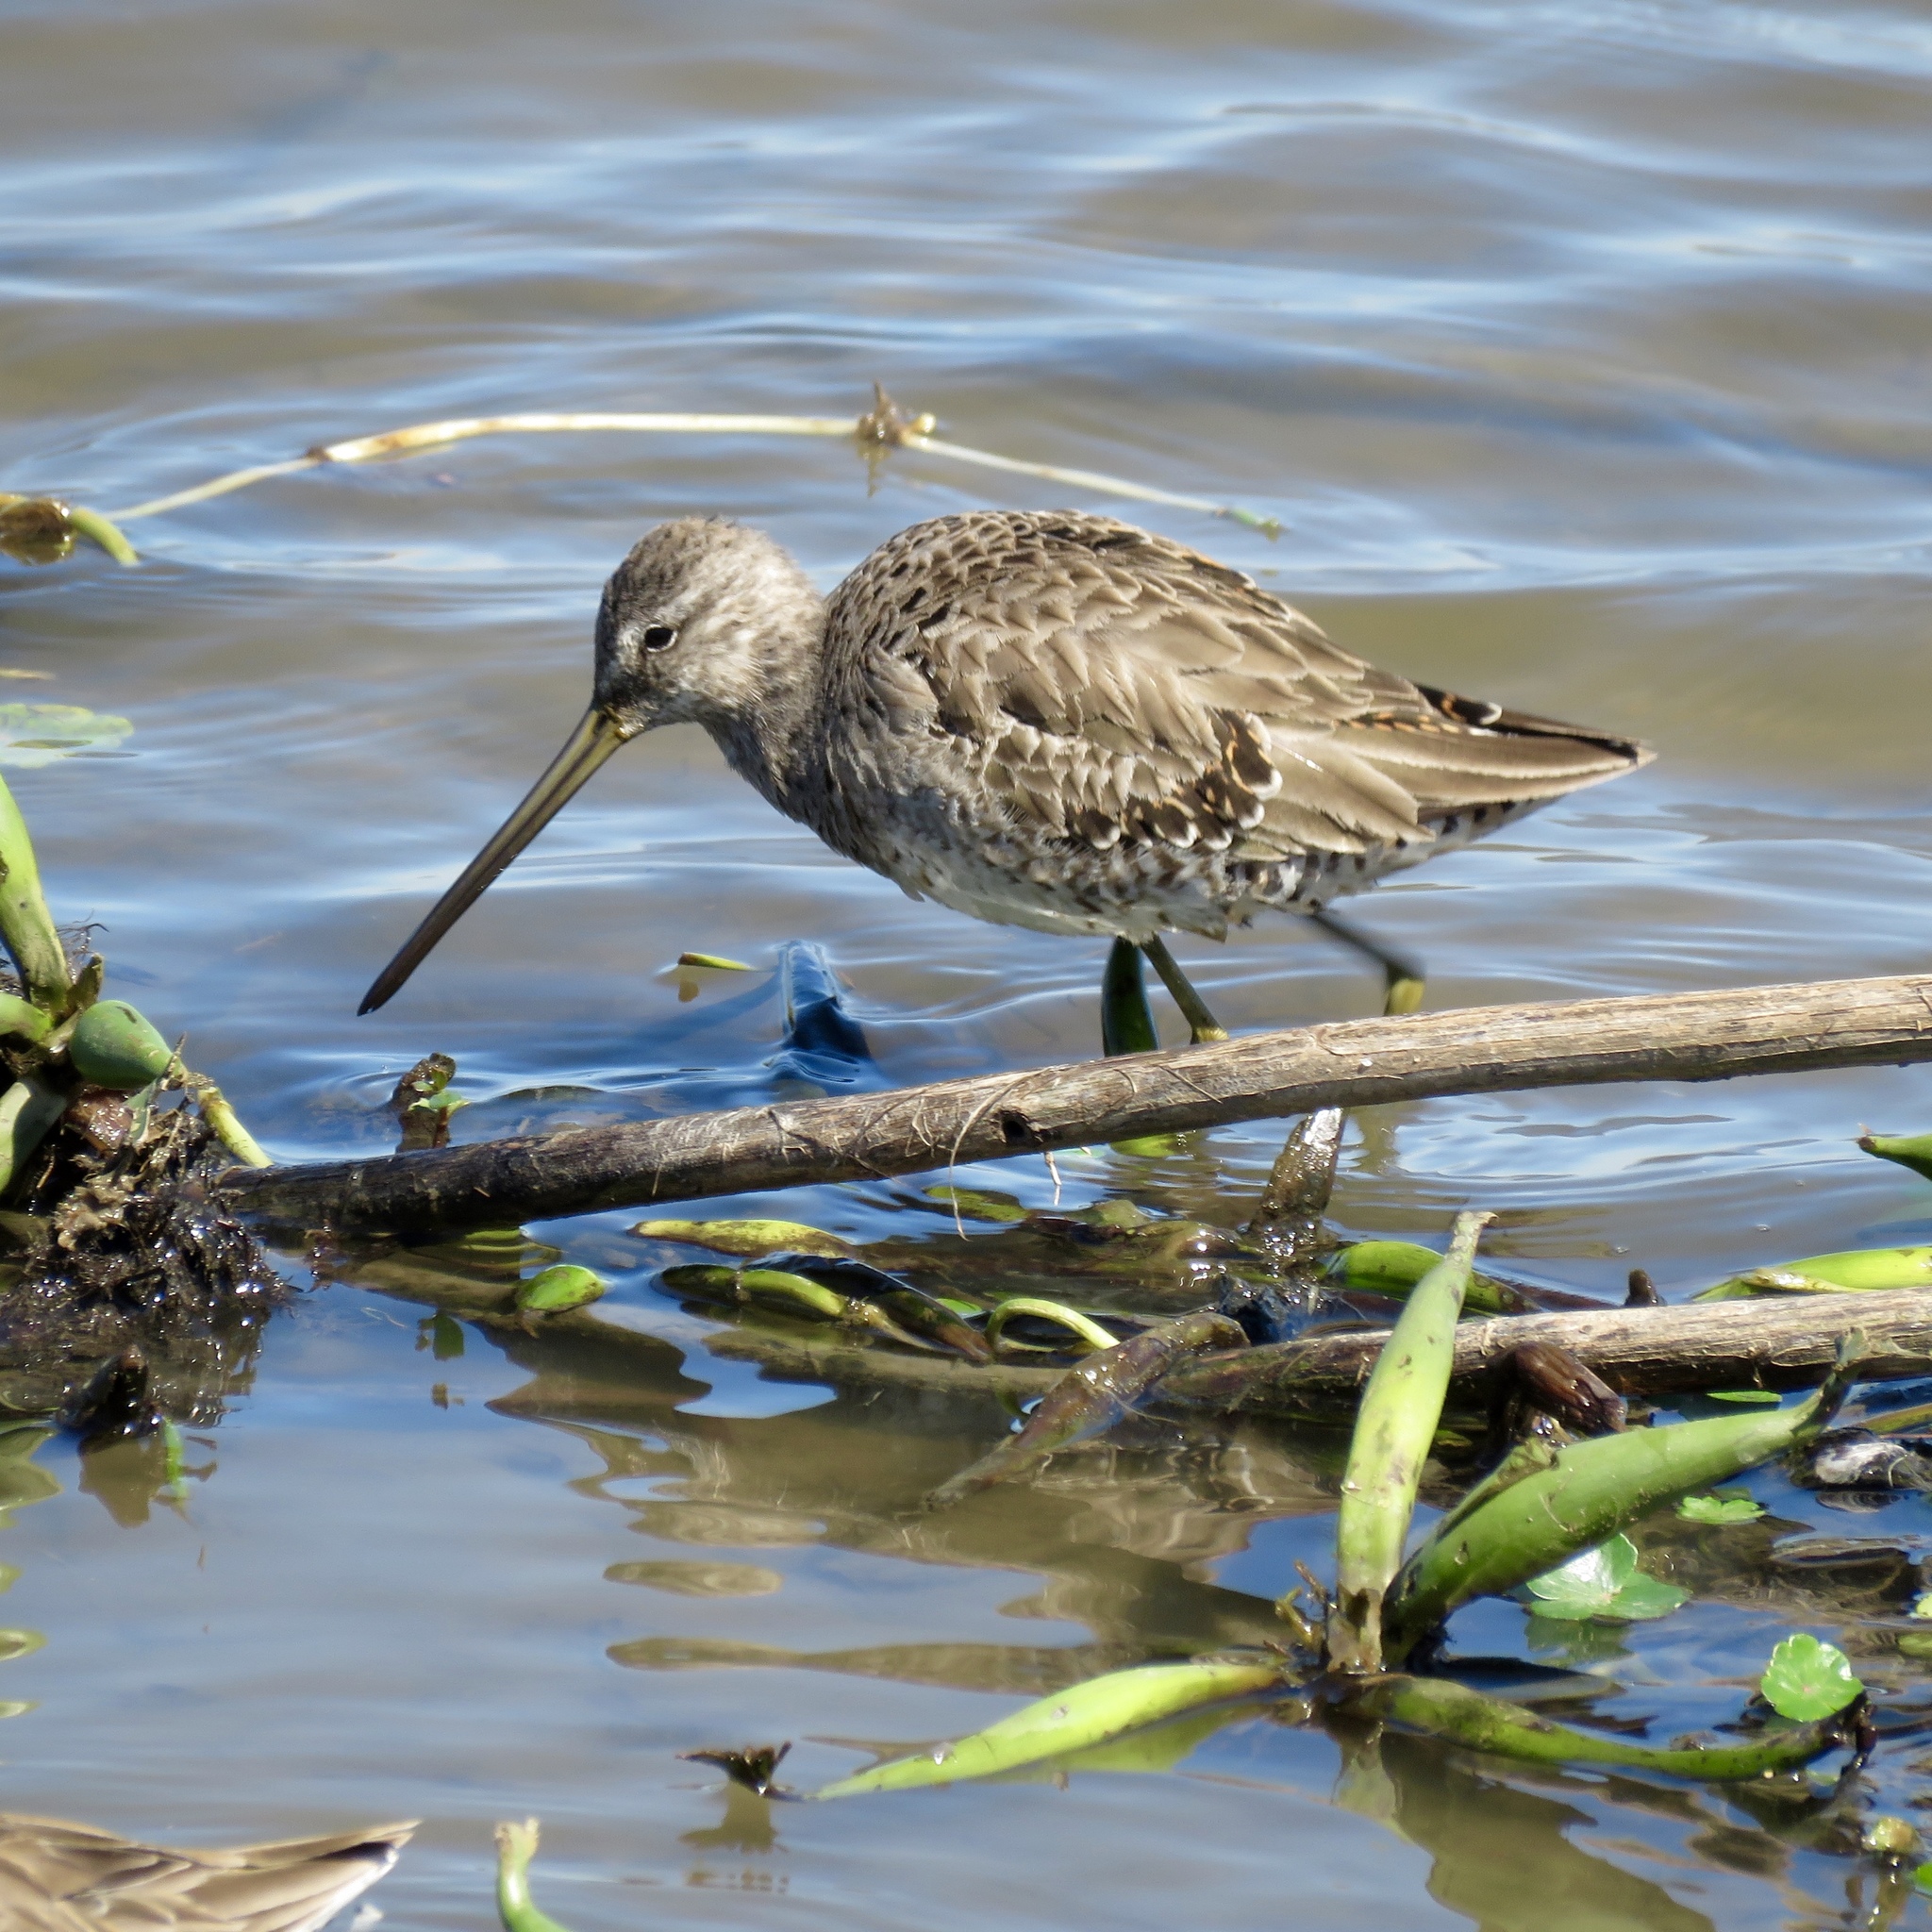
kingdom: Animalia
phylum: Chordata
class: Aves
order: Charadriiformes
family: Scolopacidae
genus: Limnodromus
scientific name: Limnodromus scolopaceus
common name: Long-billed dowitcher
